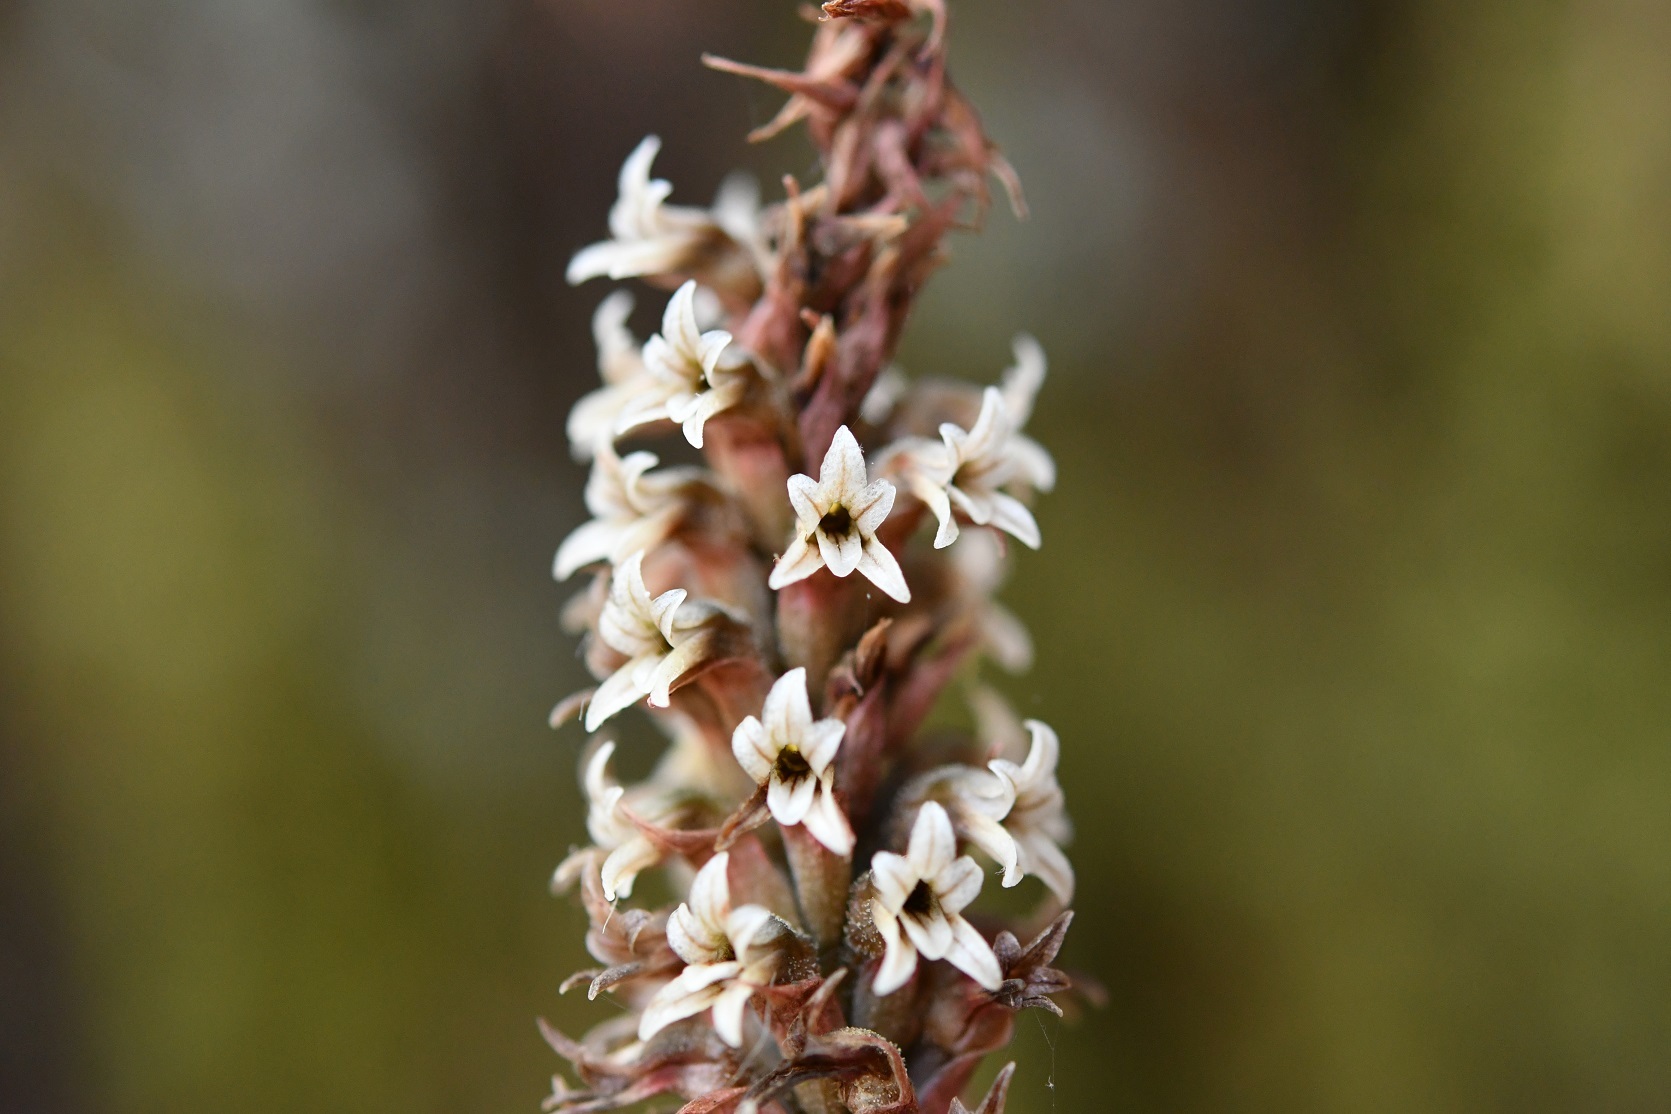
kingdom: Plantae
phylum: Tracheophyta
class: Liliopsida
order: Asparagales
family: Orchidaceae
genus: Aulosepalum
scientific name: Aulosepalum pyramidale
